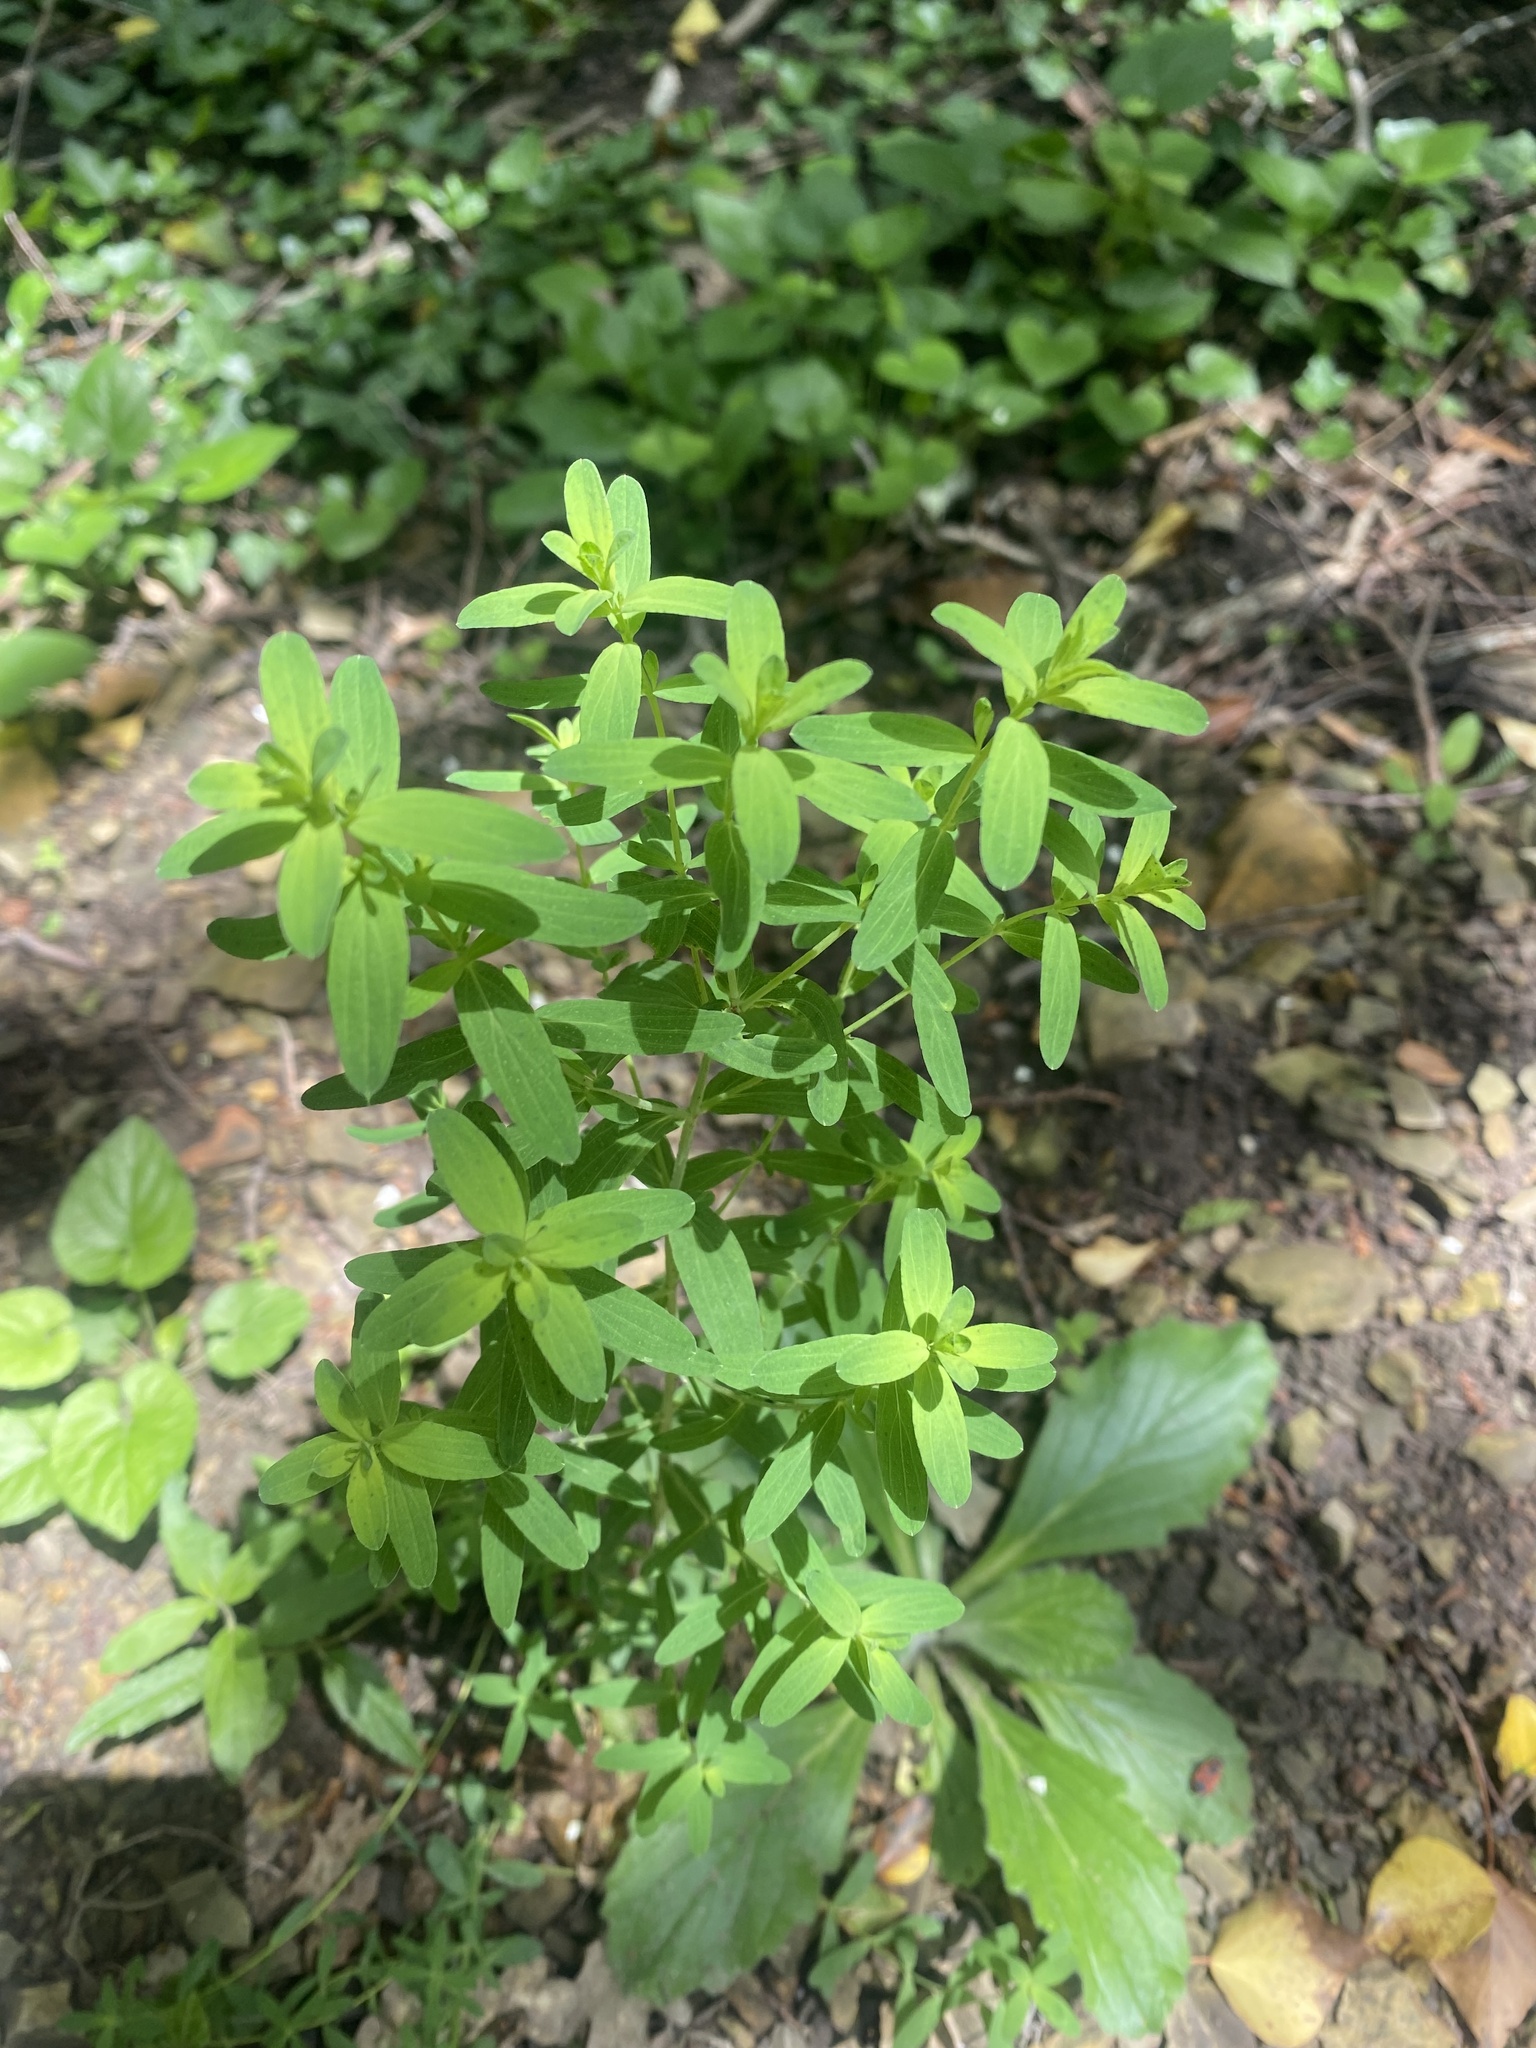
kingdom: Plantae
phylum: Tracheophyta
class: Magnoliopsida
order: Malpighiales
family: Hypericaceae
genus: Hypericum
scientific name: Hypericum perforatum
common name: Common st. johnswort
